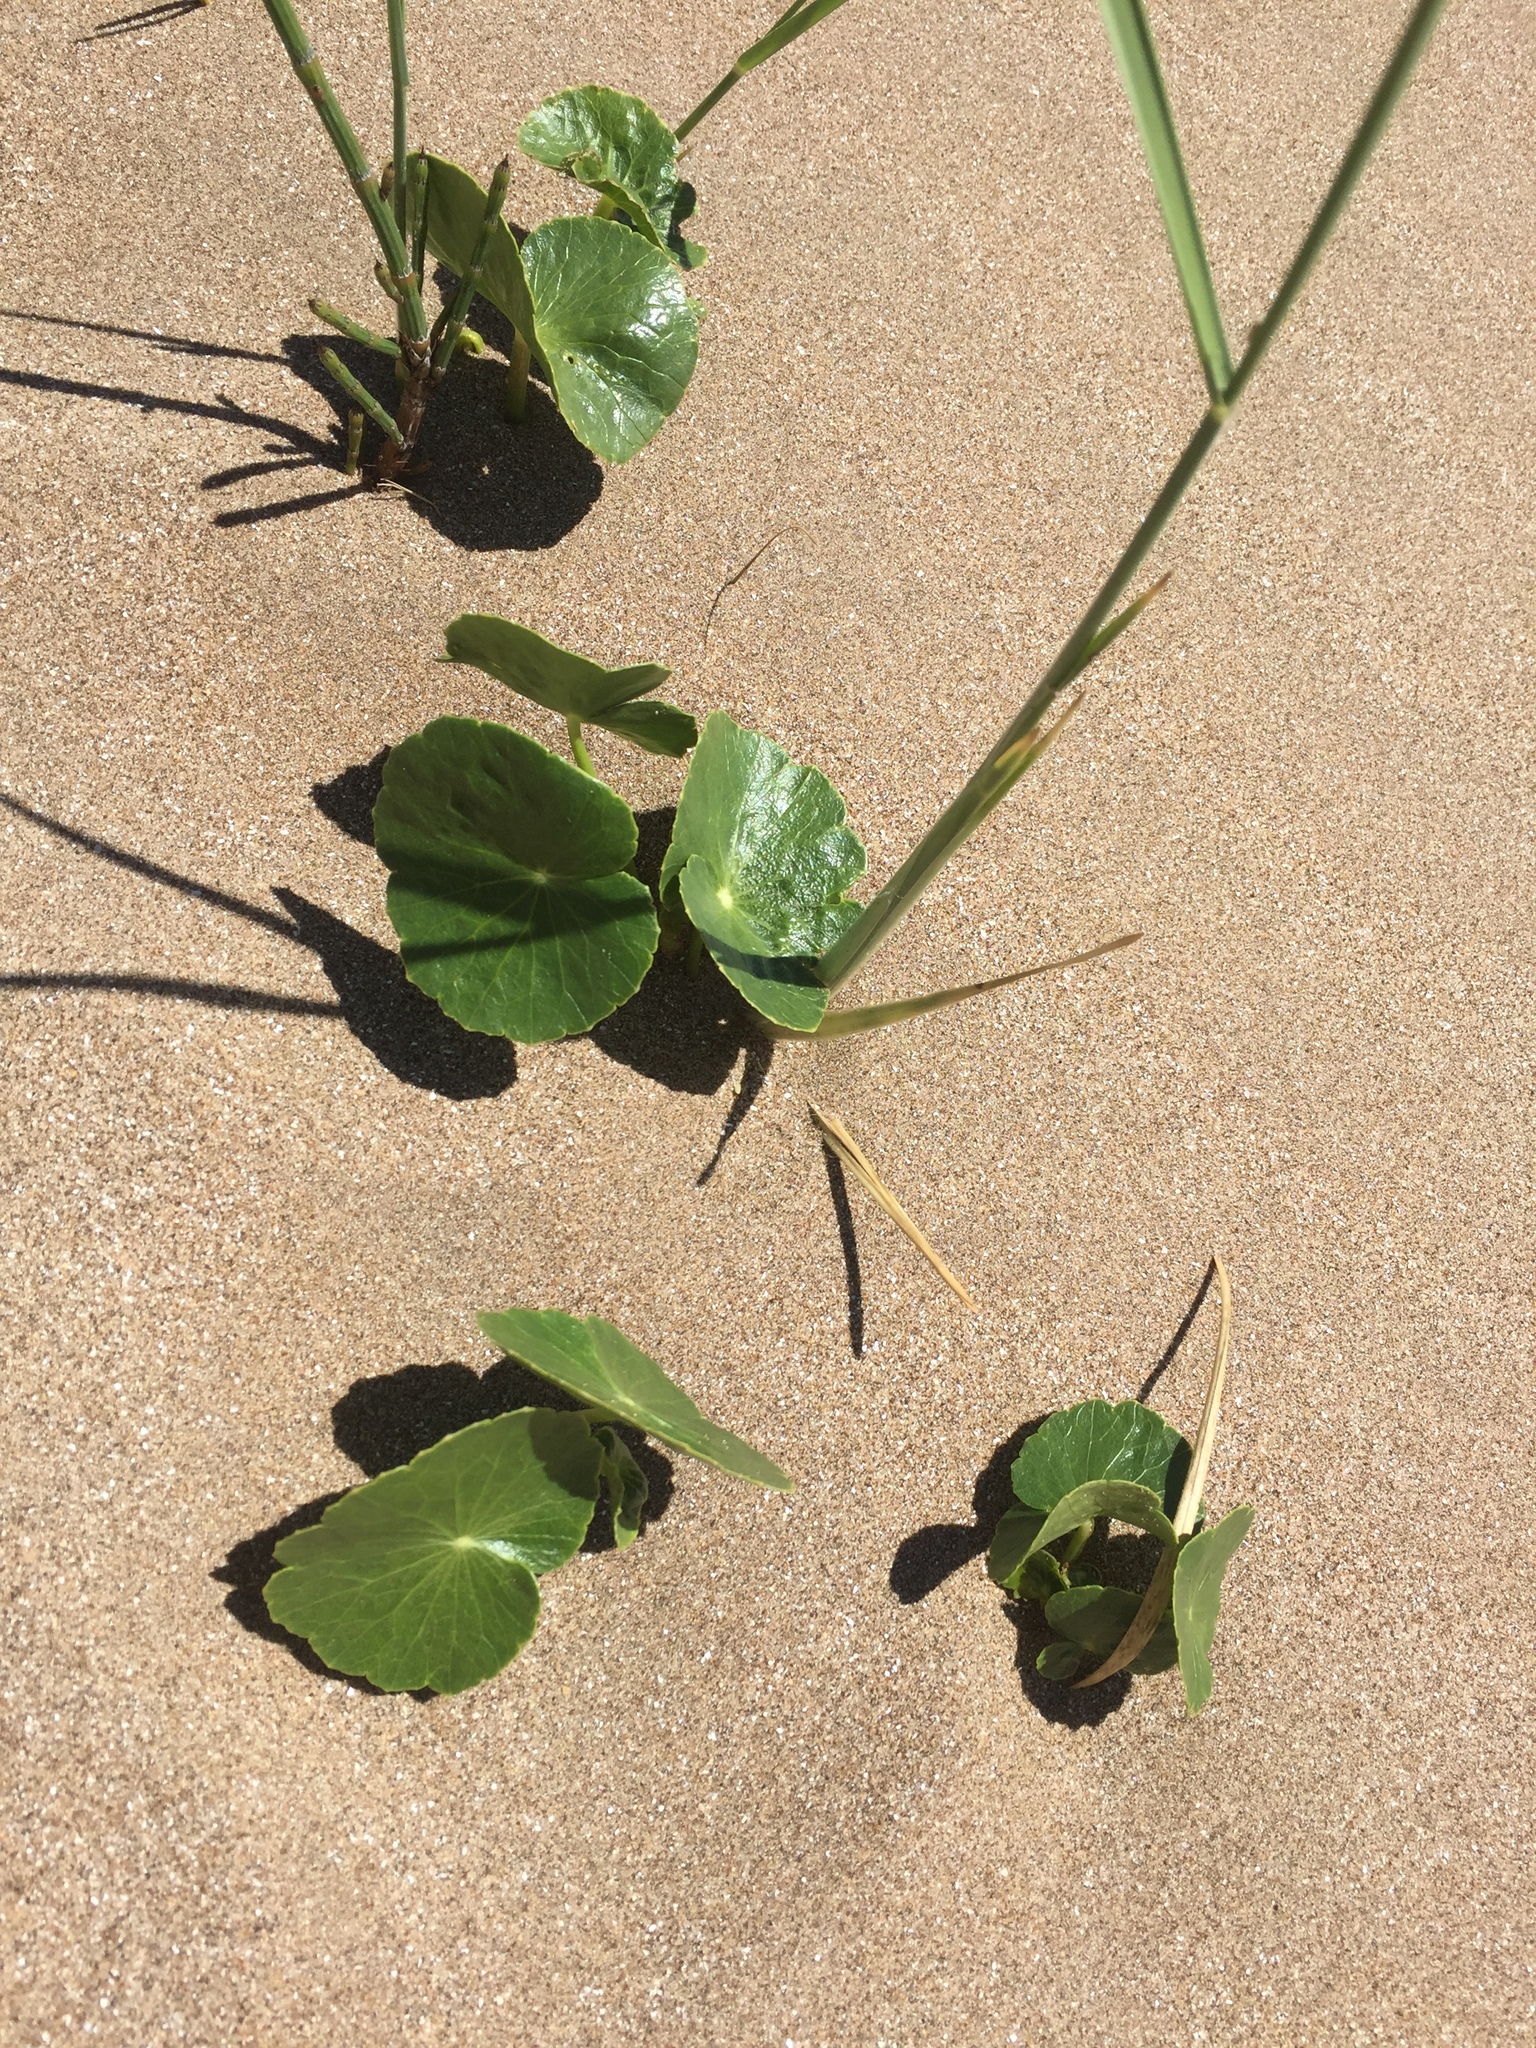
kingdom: Plantae
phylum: Tracheophyta
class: Magnoliopsida
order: Apiales
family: Araliaceae
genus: Hydrocotyle
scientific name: Hydrocotyle bonariensis
